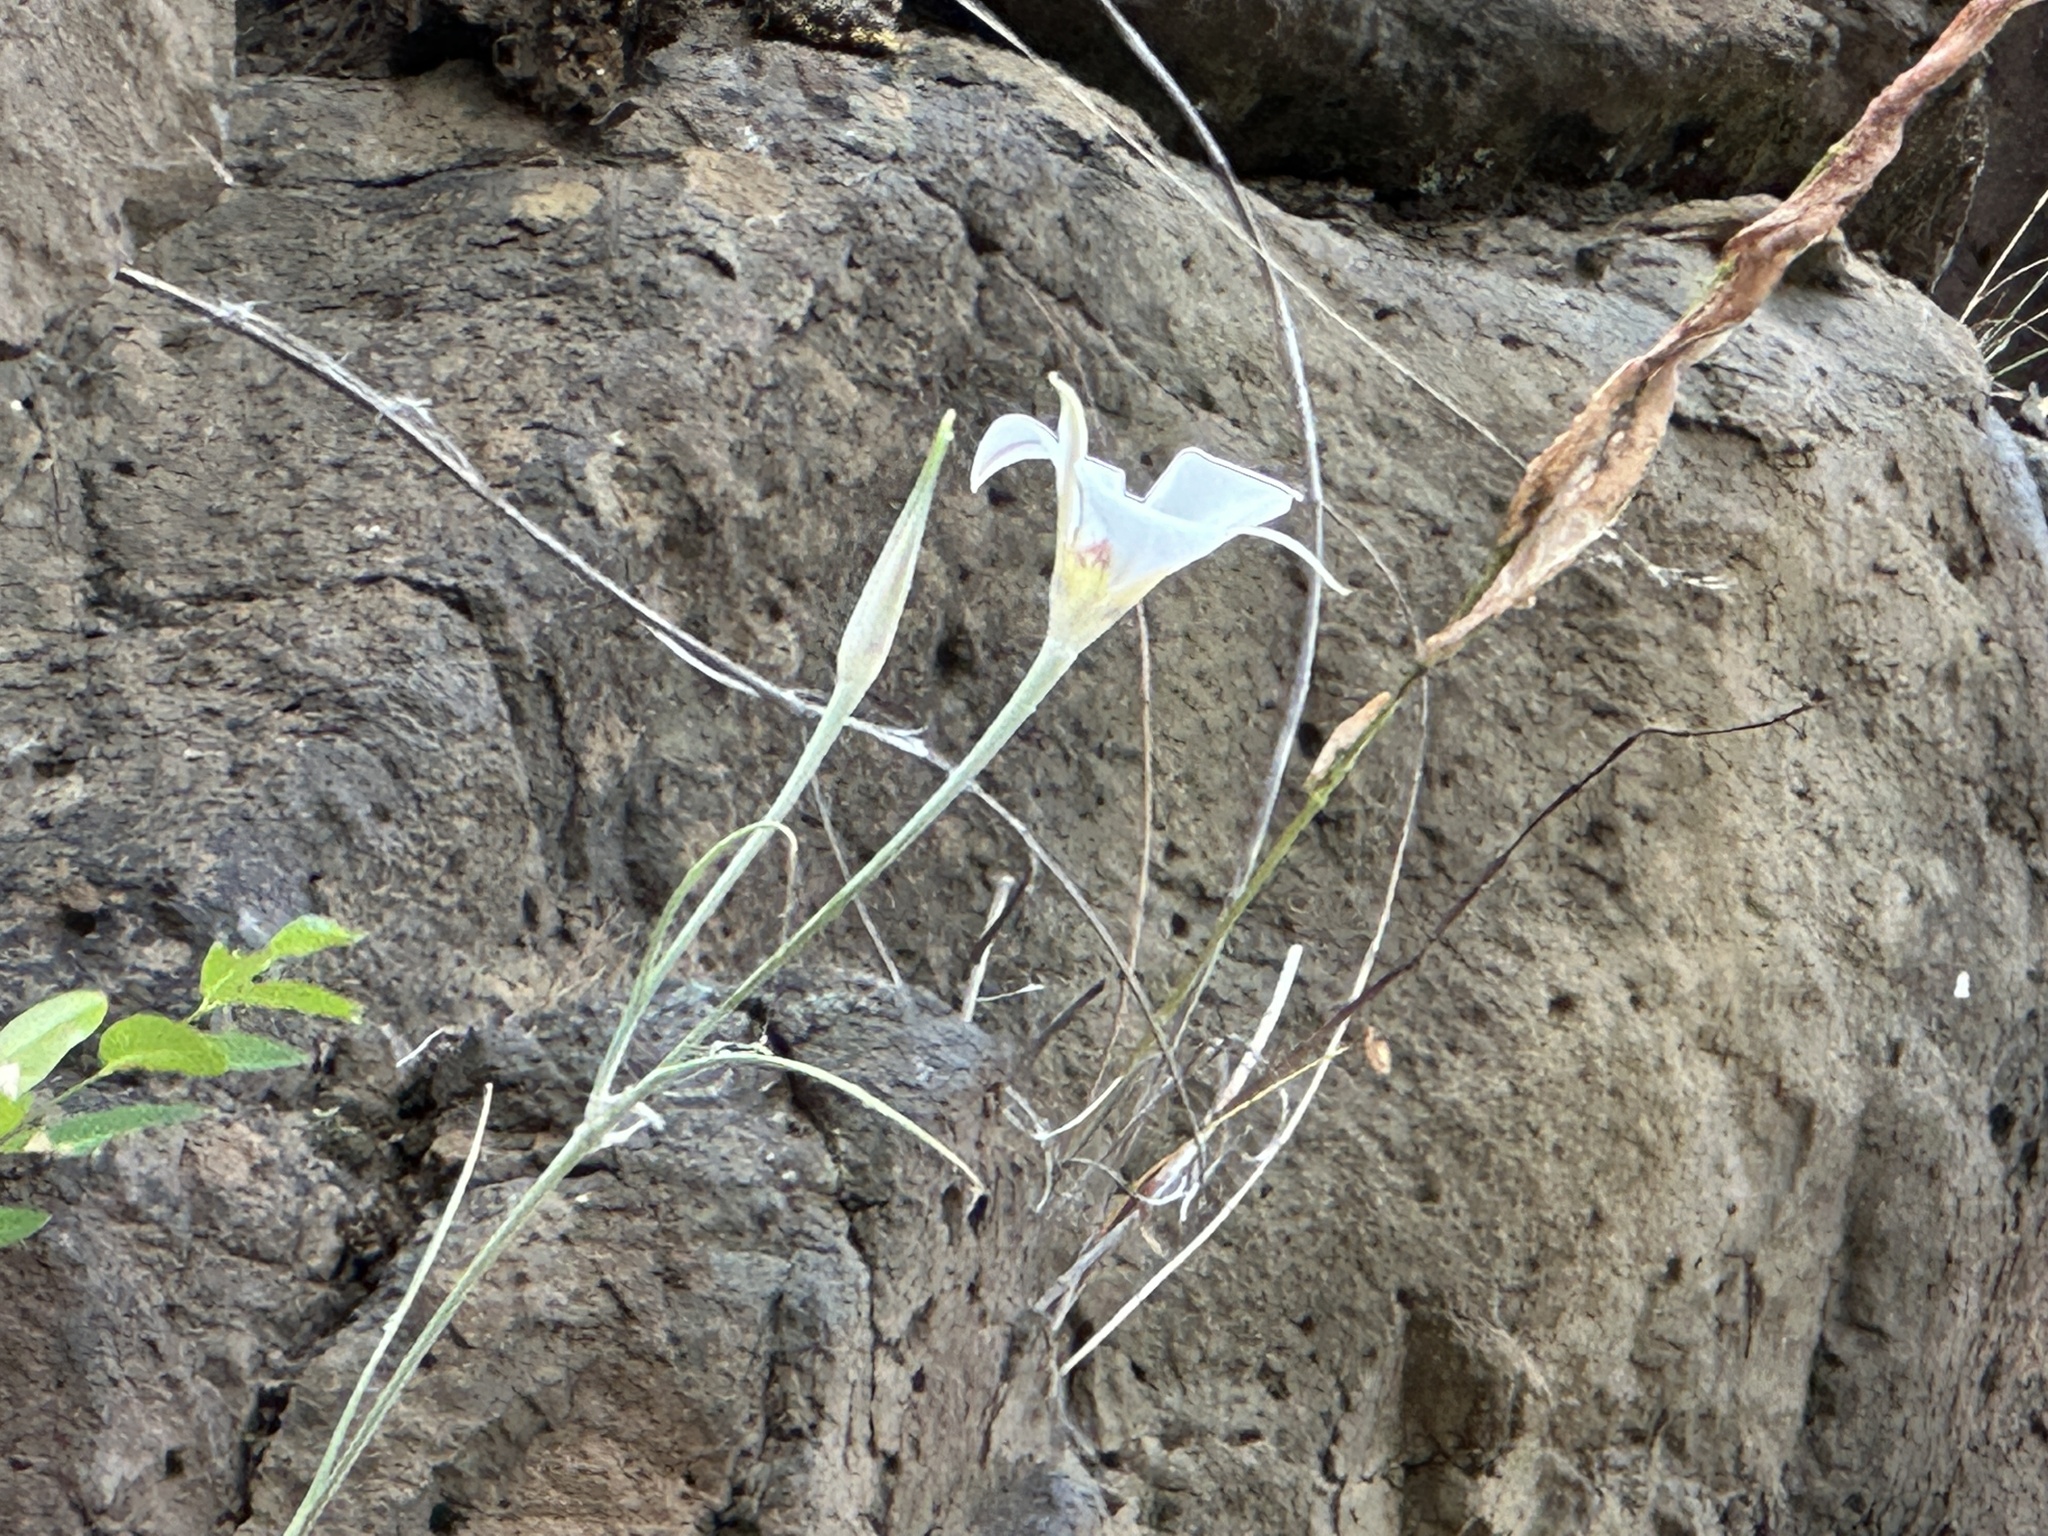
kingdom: Plantae
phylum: Tracheophyta
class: Liliopsida
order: Liliales
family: Liliaceae
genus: Calochortus
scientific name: Calochortus macrocarpus
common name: Green-band mariposa lily
